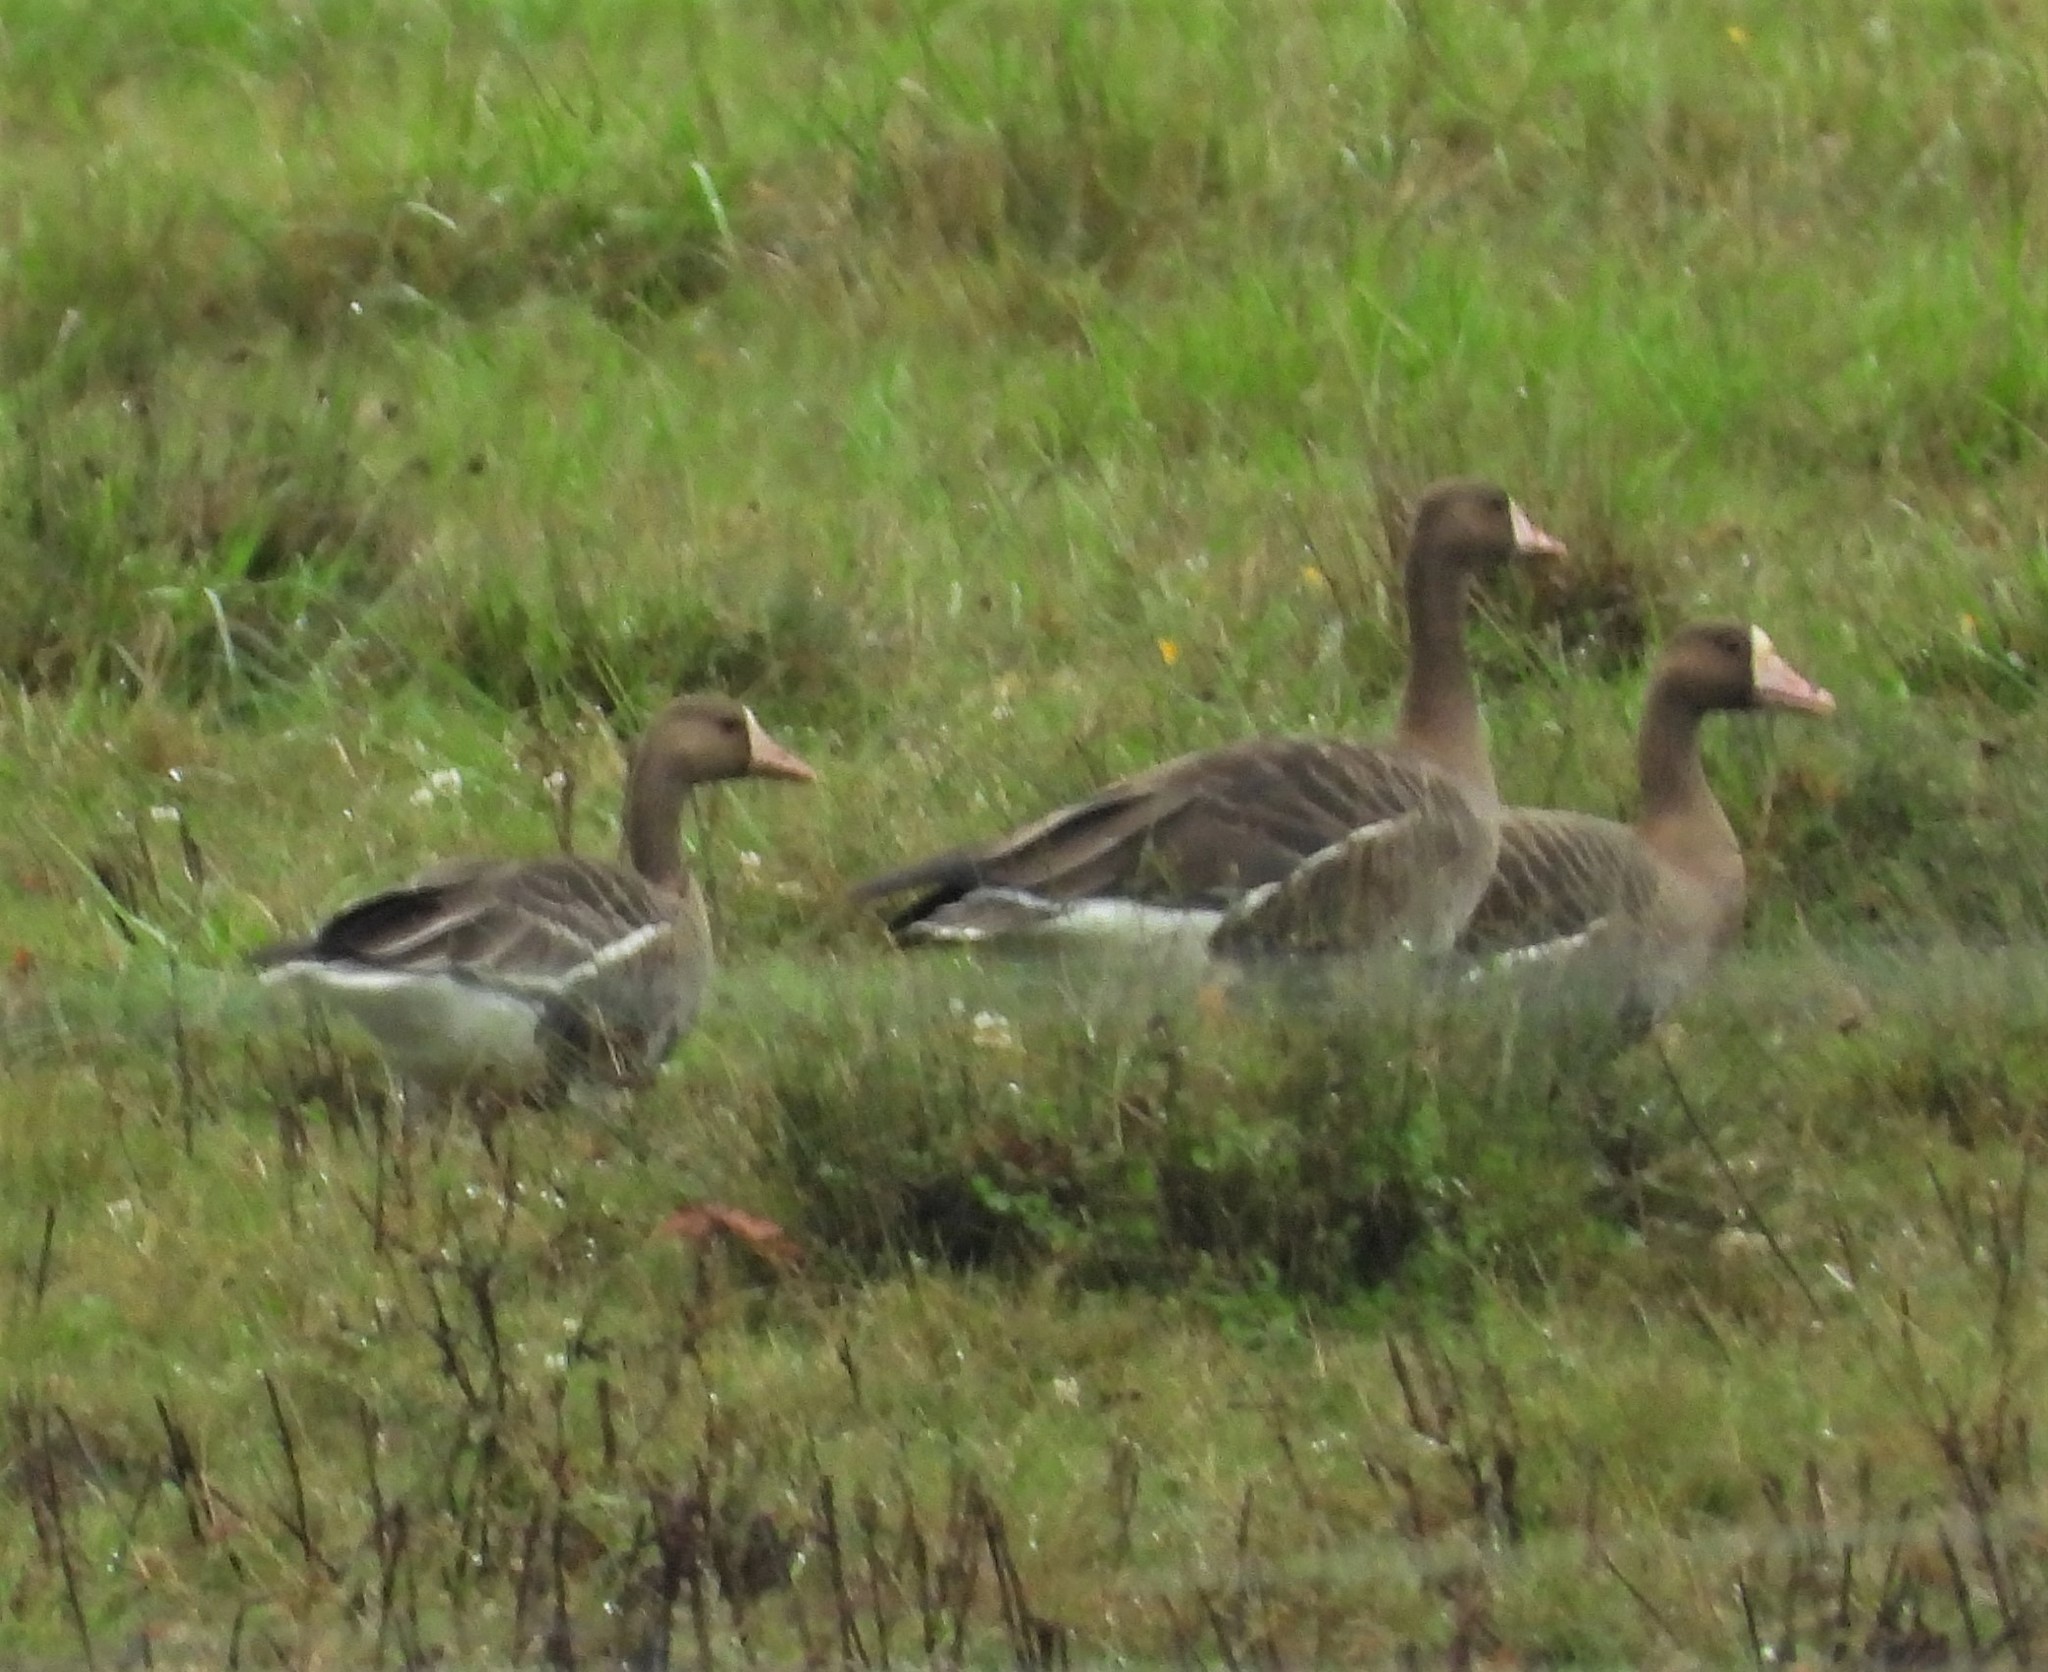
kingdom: Animalia
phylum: Chordata
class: Aves
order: Anseriformes
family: Anatidae
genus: Anser
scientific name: Anser albifrons
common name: Greater white-fronted goose
